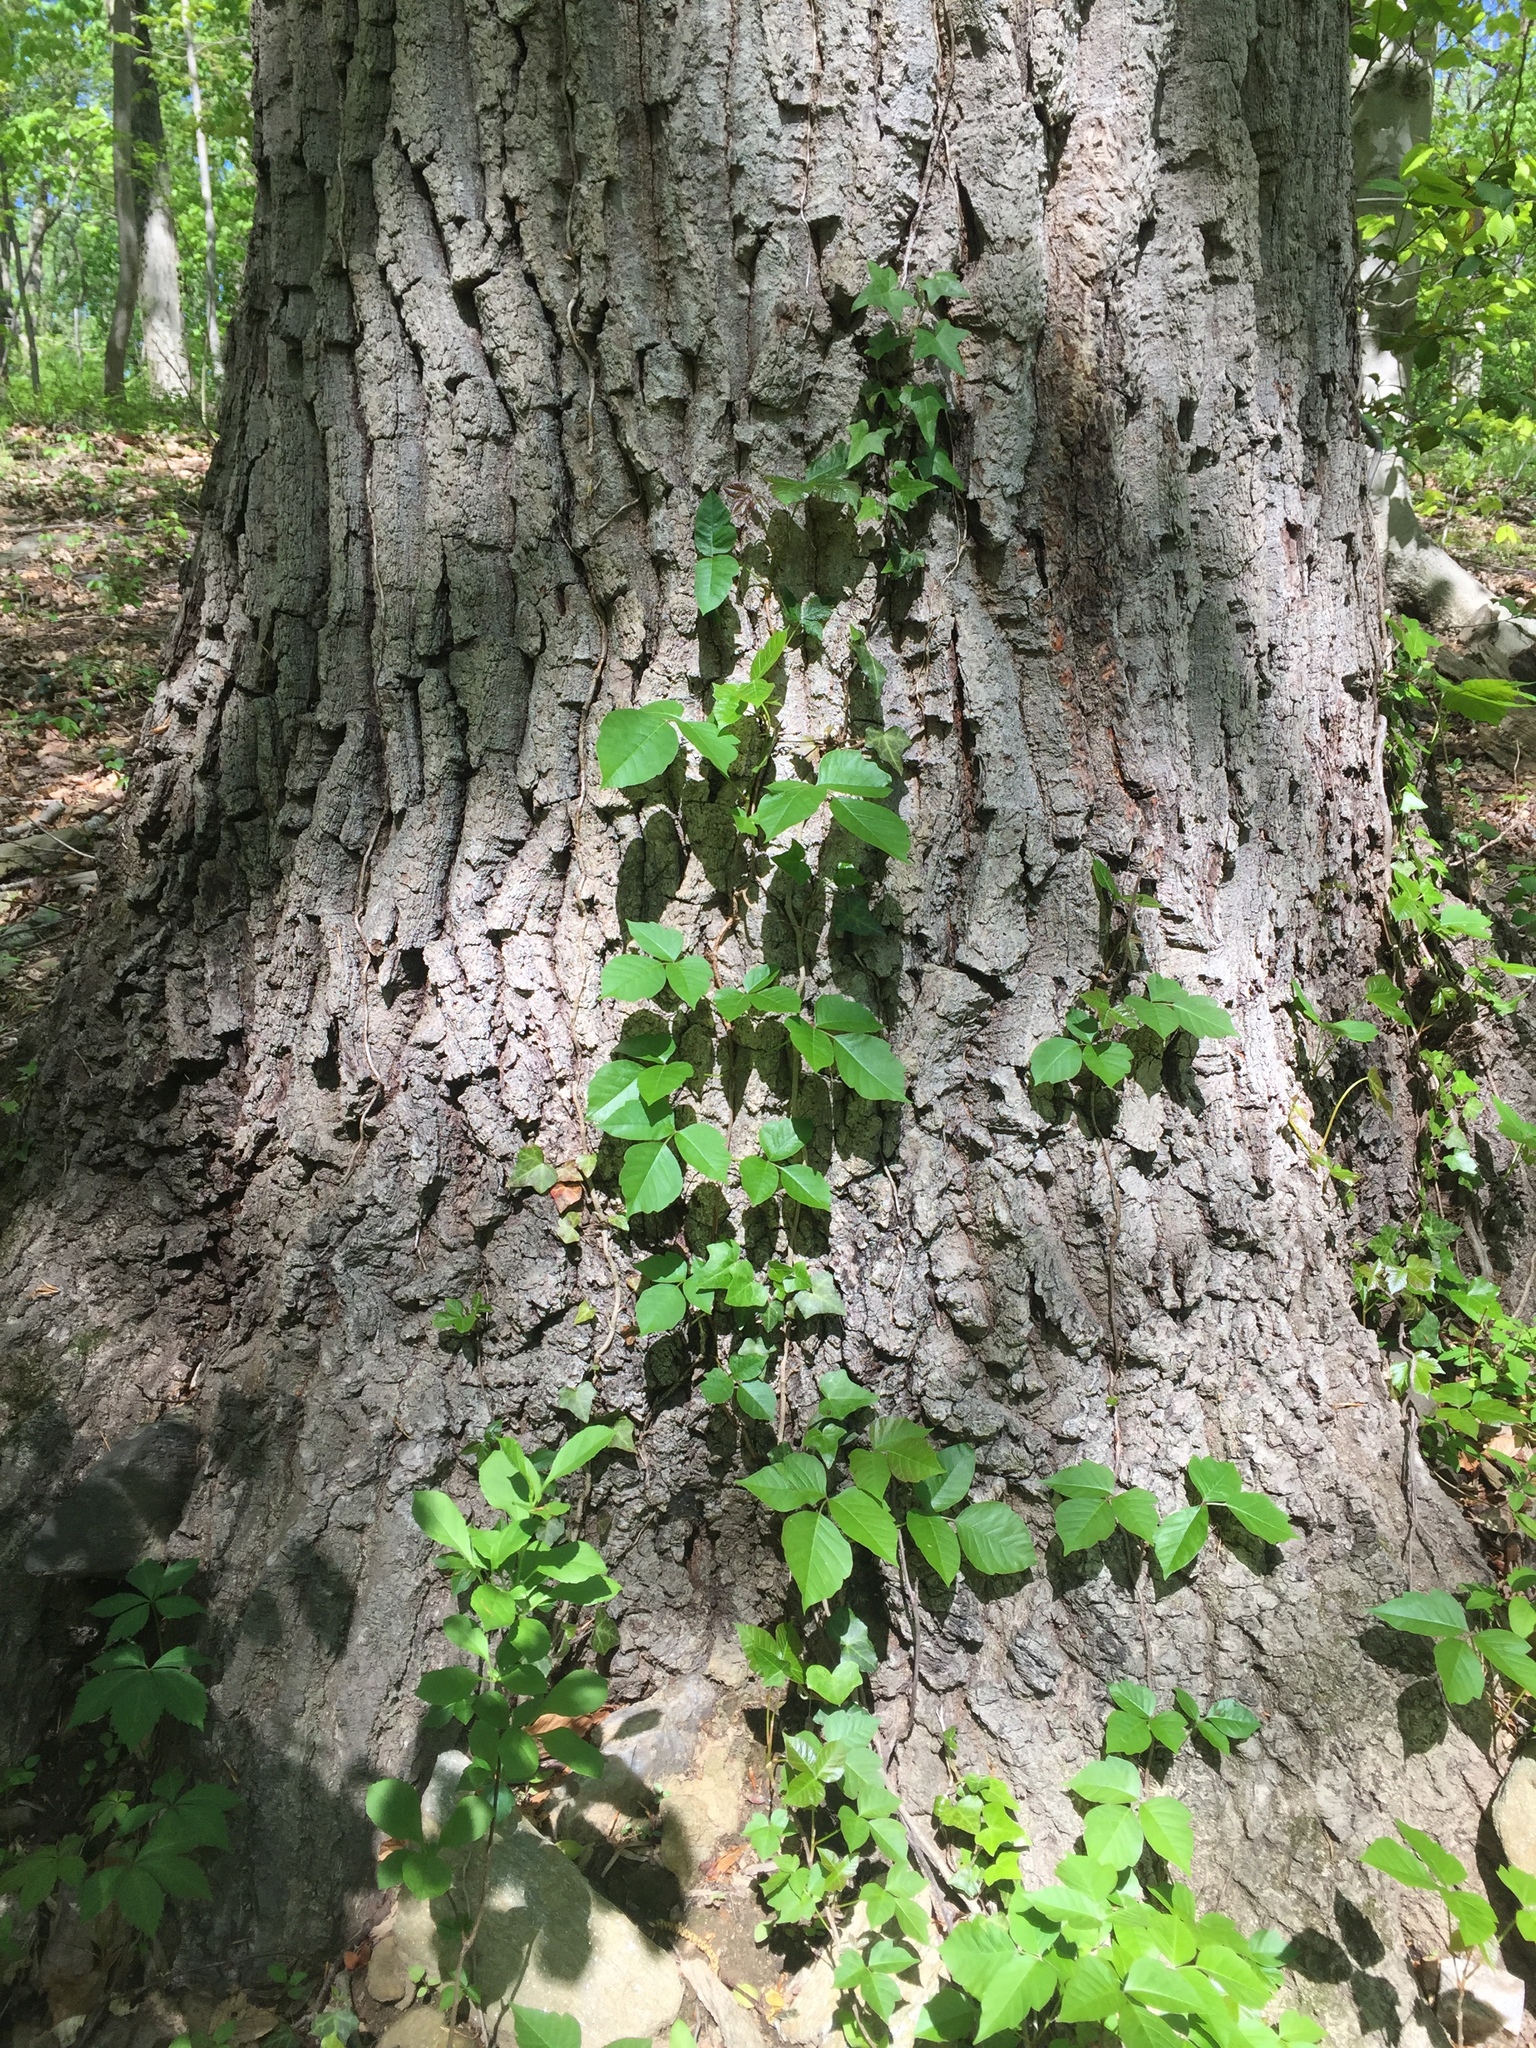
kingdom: Plantae
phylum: Tracheophyta
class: Magnoliopsida
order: Sapindales
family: Anacardiaceae
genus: Toxicodendron
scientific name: Toxicodendron radicans
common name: Poison ivy
